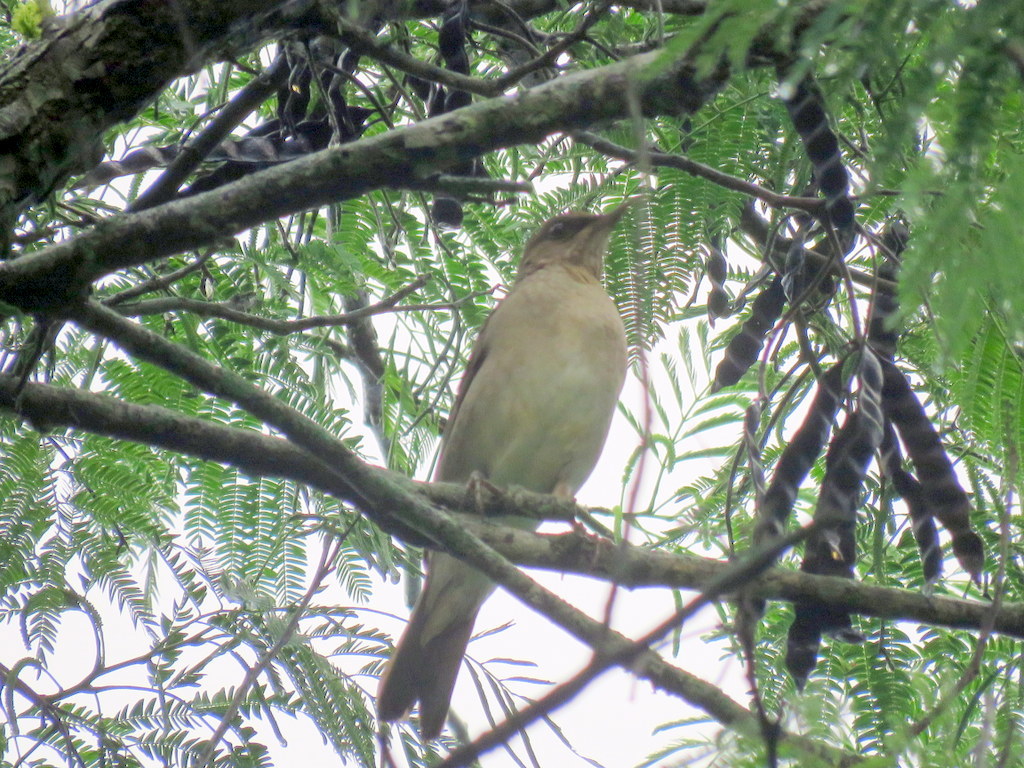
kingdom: Animalia
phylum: Chordata
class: Aves
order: Passeriformes
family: Turdidae
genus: Turdus
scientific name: Turdus amaurochalinus
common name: Creamy-bellied thrush
